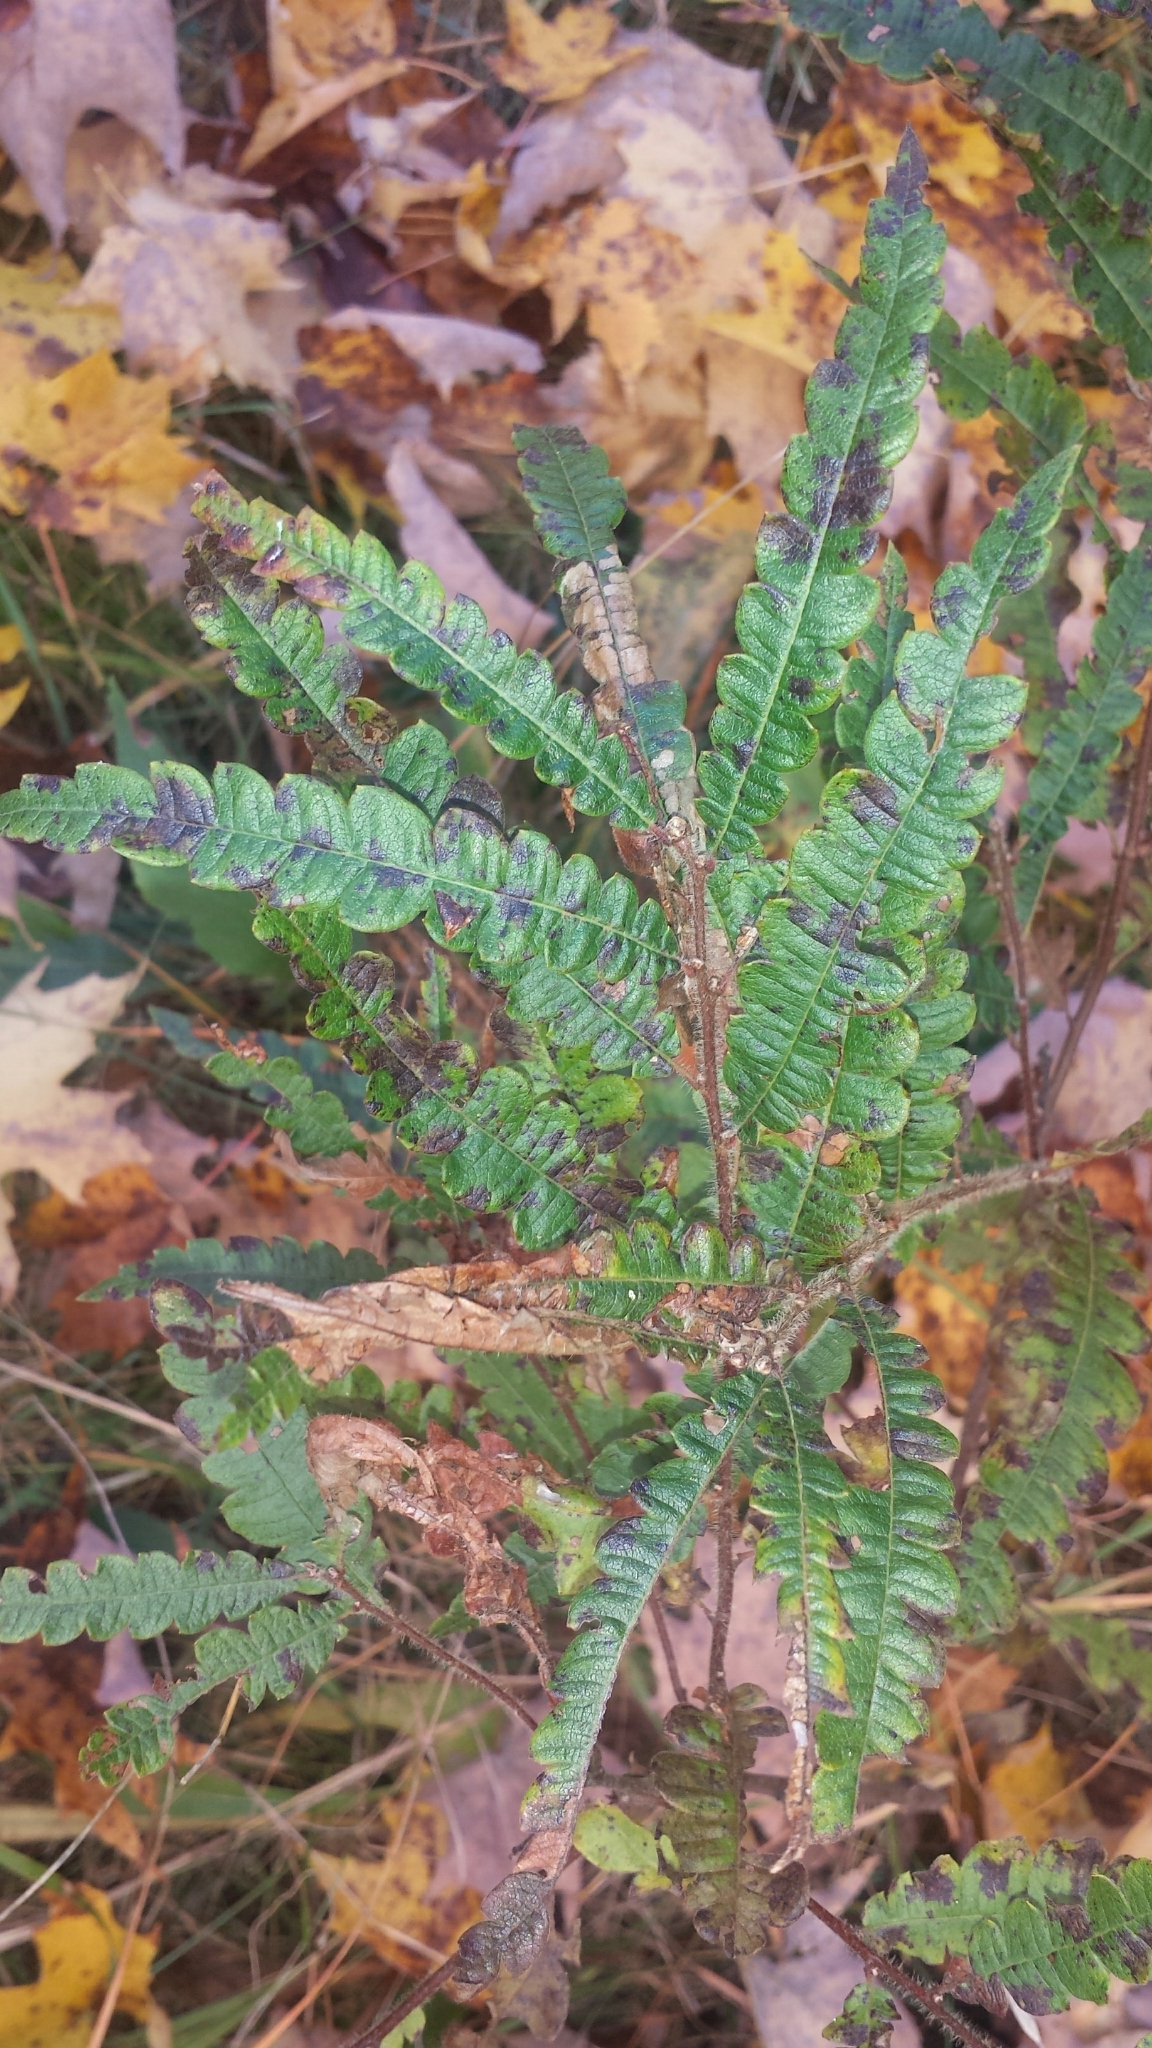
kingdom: Plantae
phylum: Tracheophyta
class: Magnoliopsida
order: Fagales
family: Myricaceae
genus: Comptonia
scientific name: Comptonia peregrina
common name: Sweet-fern
